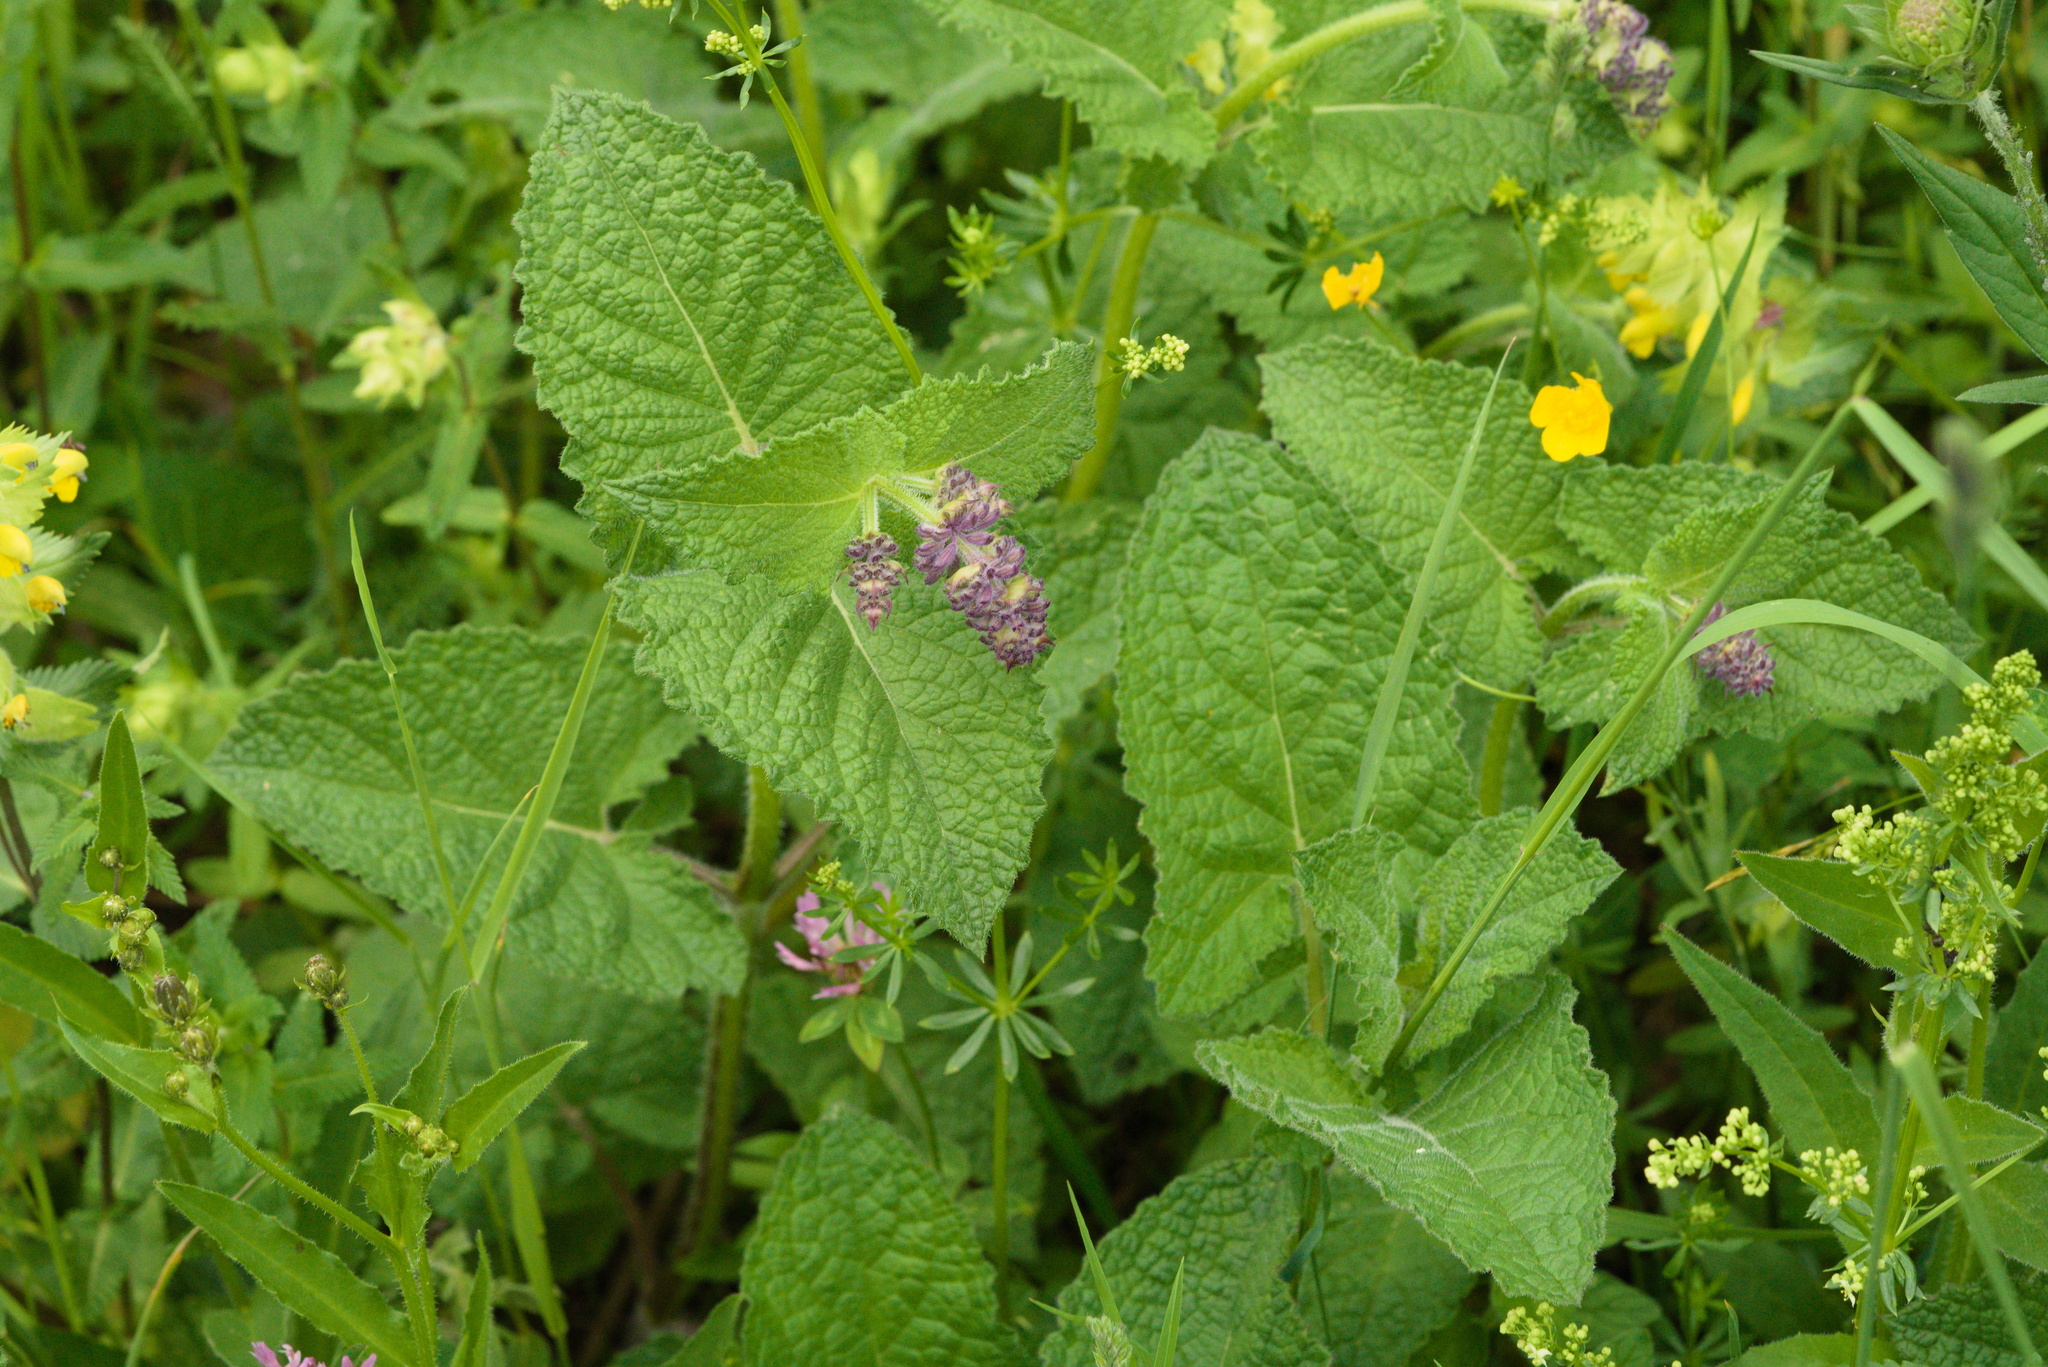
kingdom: Plantae
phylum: Tracheophyta
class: Magnoliopsida
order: Lamiales
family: Lamiaceae
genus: Salvia
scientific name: Salvia verticillata
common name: Whorled clary
